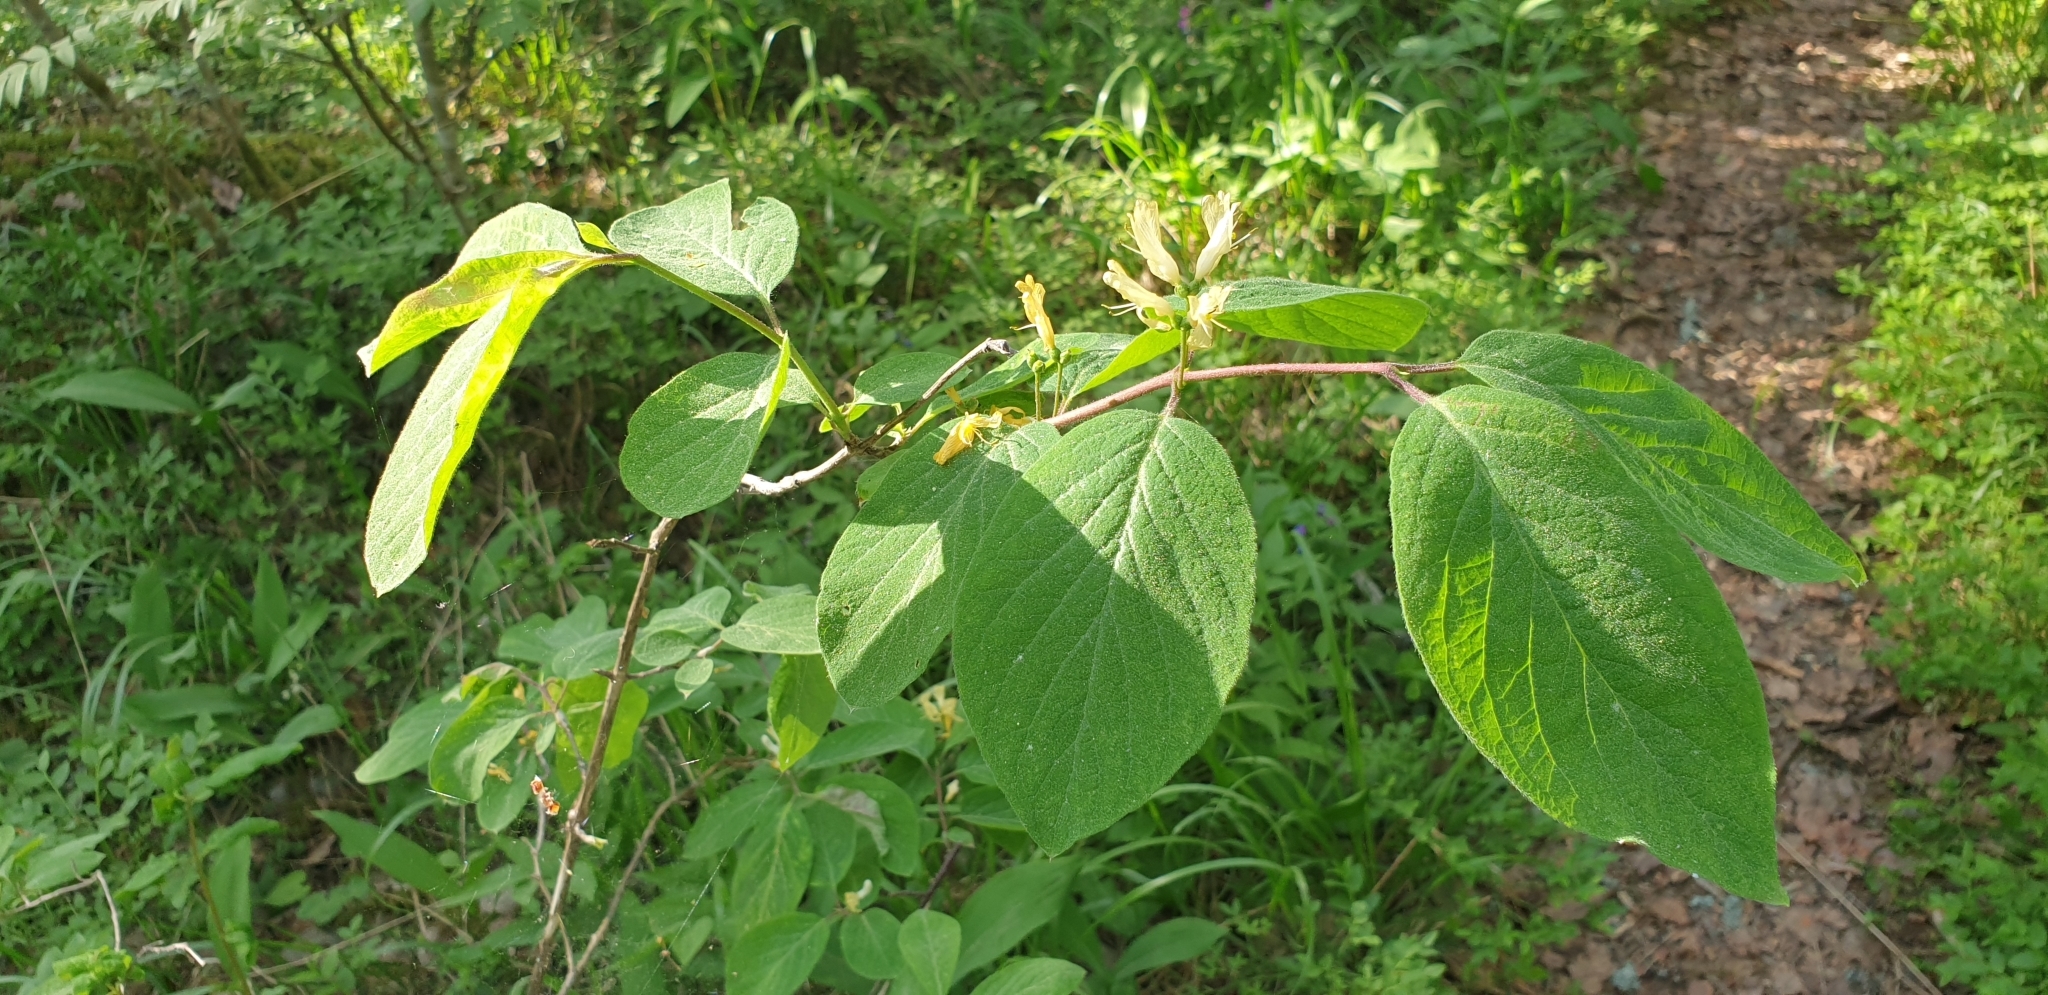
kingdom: Plantae
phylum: Tracheophyta
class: Magnoliopsida
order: Dipsacales
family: Caprifoliaceae
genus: Lonicera
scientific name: Lonicera xylosteum
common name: Fly honeysuckle
